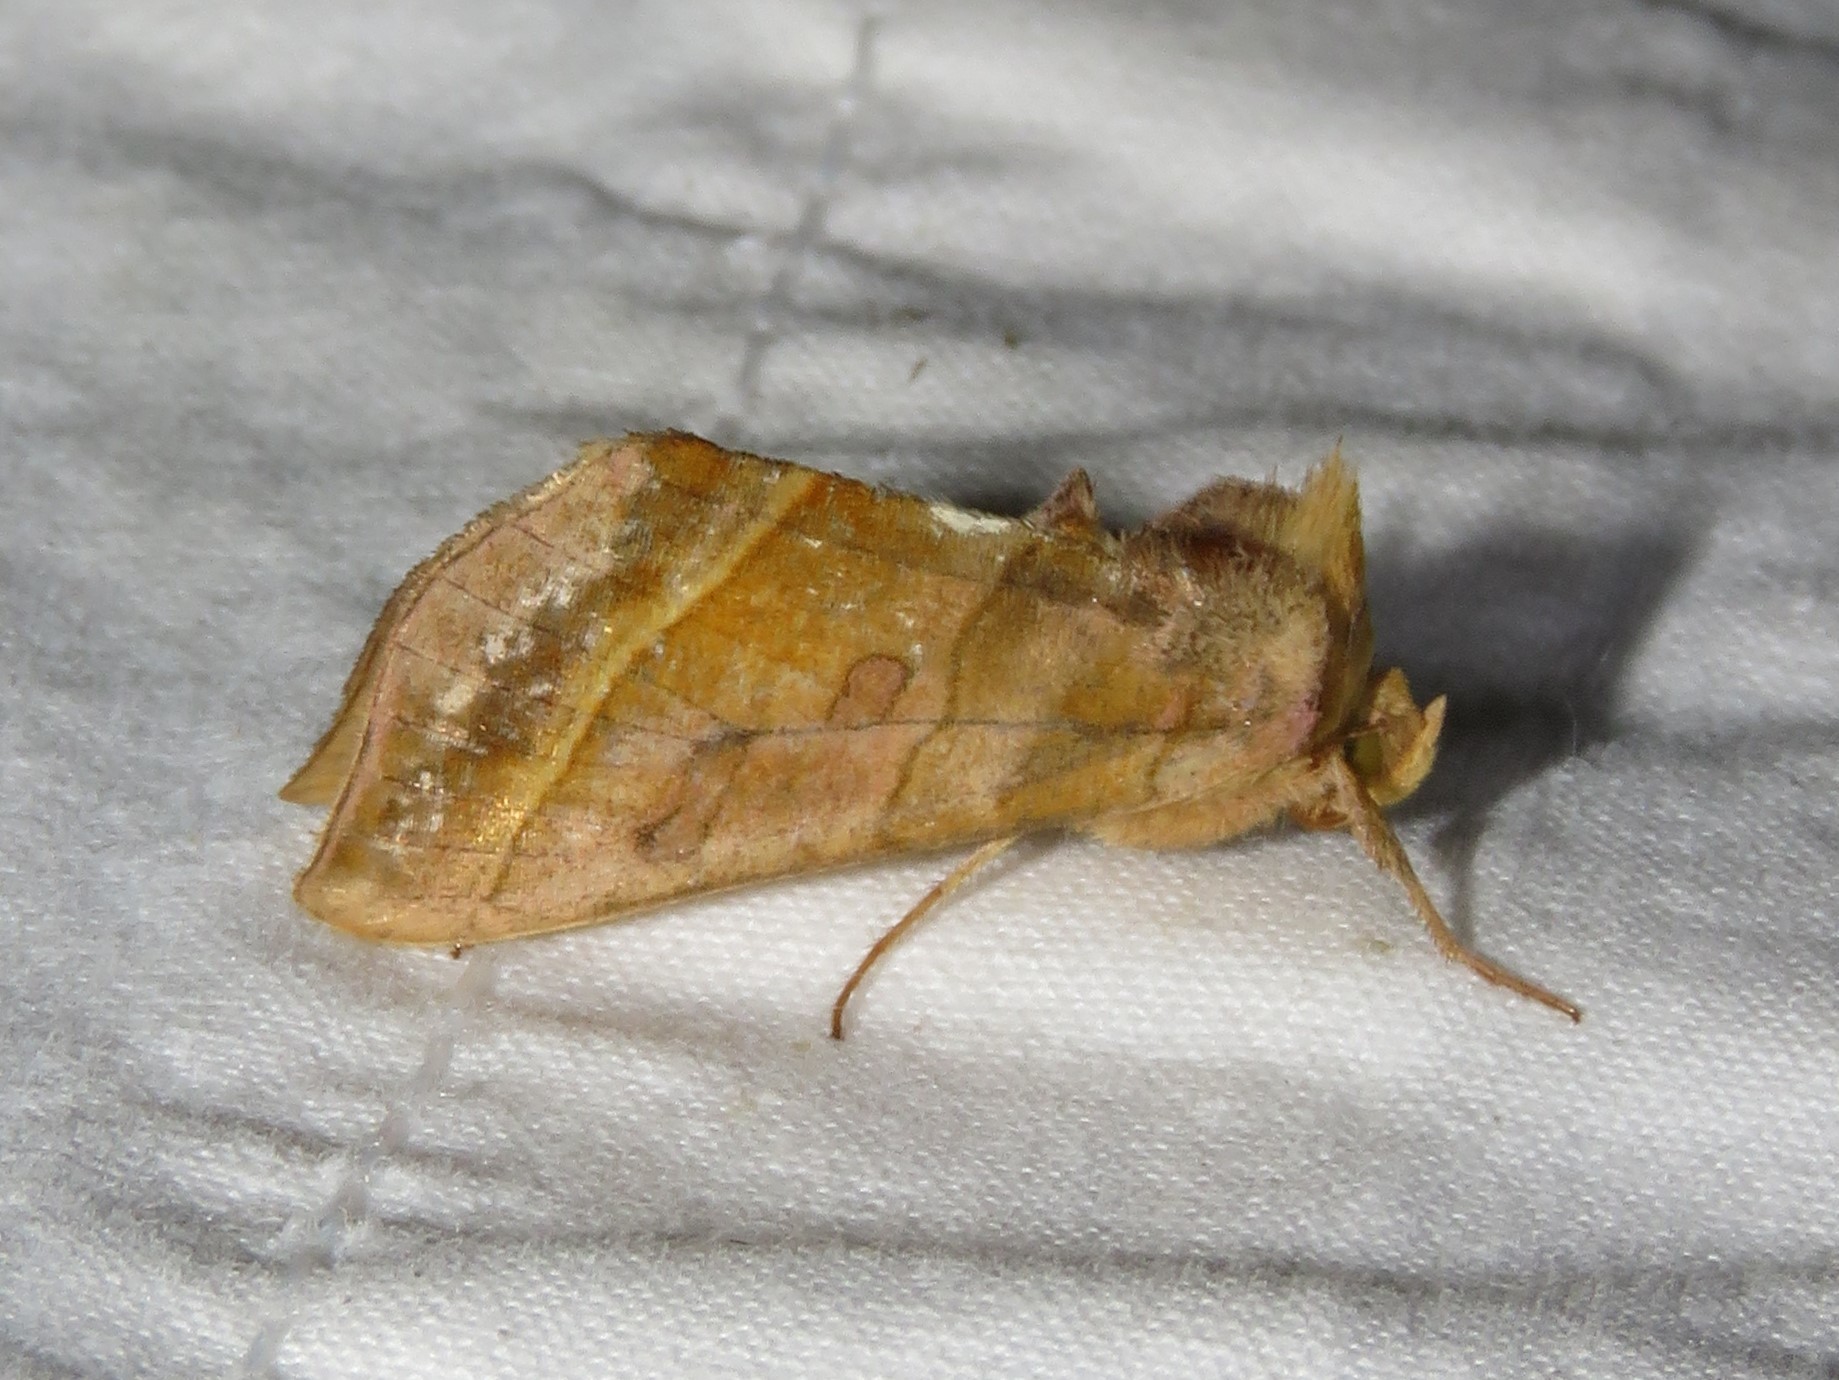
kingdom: Animalia
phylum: Arthropoda
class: Insecta
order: Lepidoptera
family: Noctuidae
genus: Diachrysia
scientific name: Diachrysia aereoides
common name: Dark-spotted looper moth
